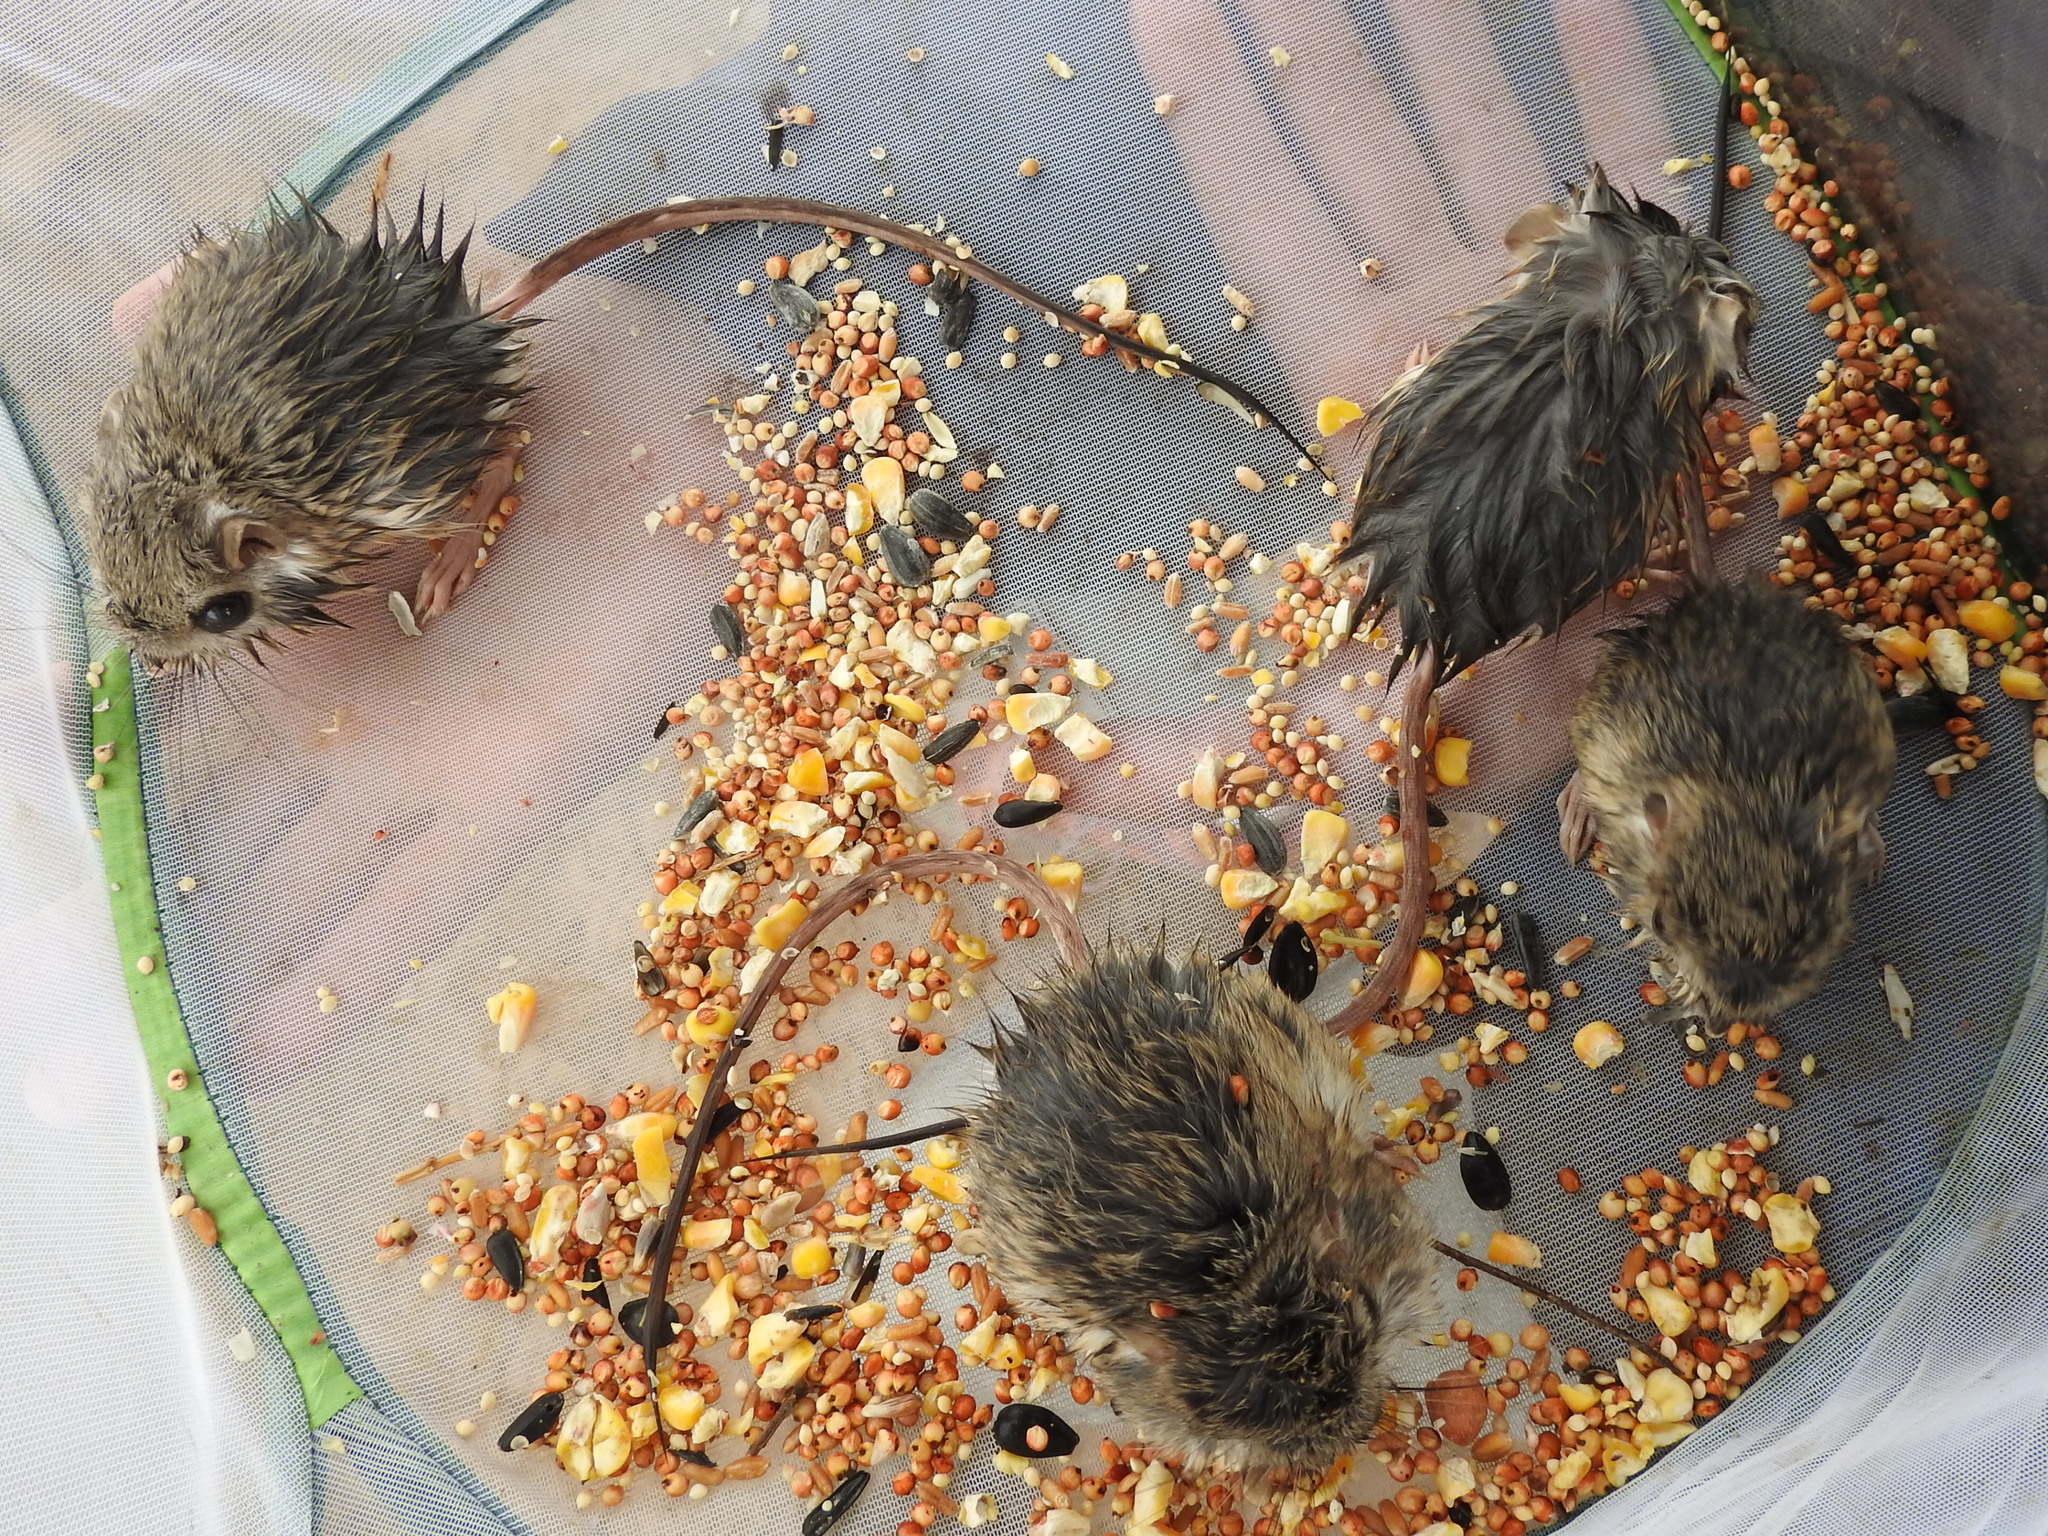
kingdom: Animalia
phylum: Chordata
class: Mammalia
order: Rodentia
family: Heteromyidae
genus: Dipodomys
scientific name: Dipodomys merriami
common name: Merriam's kangaroo rat
